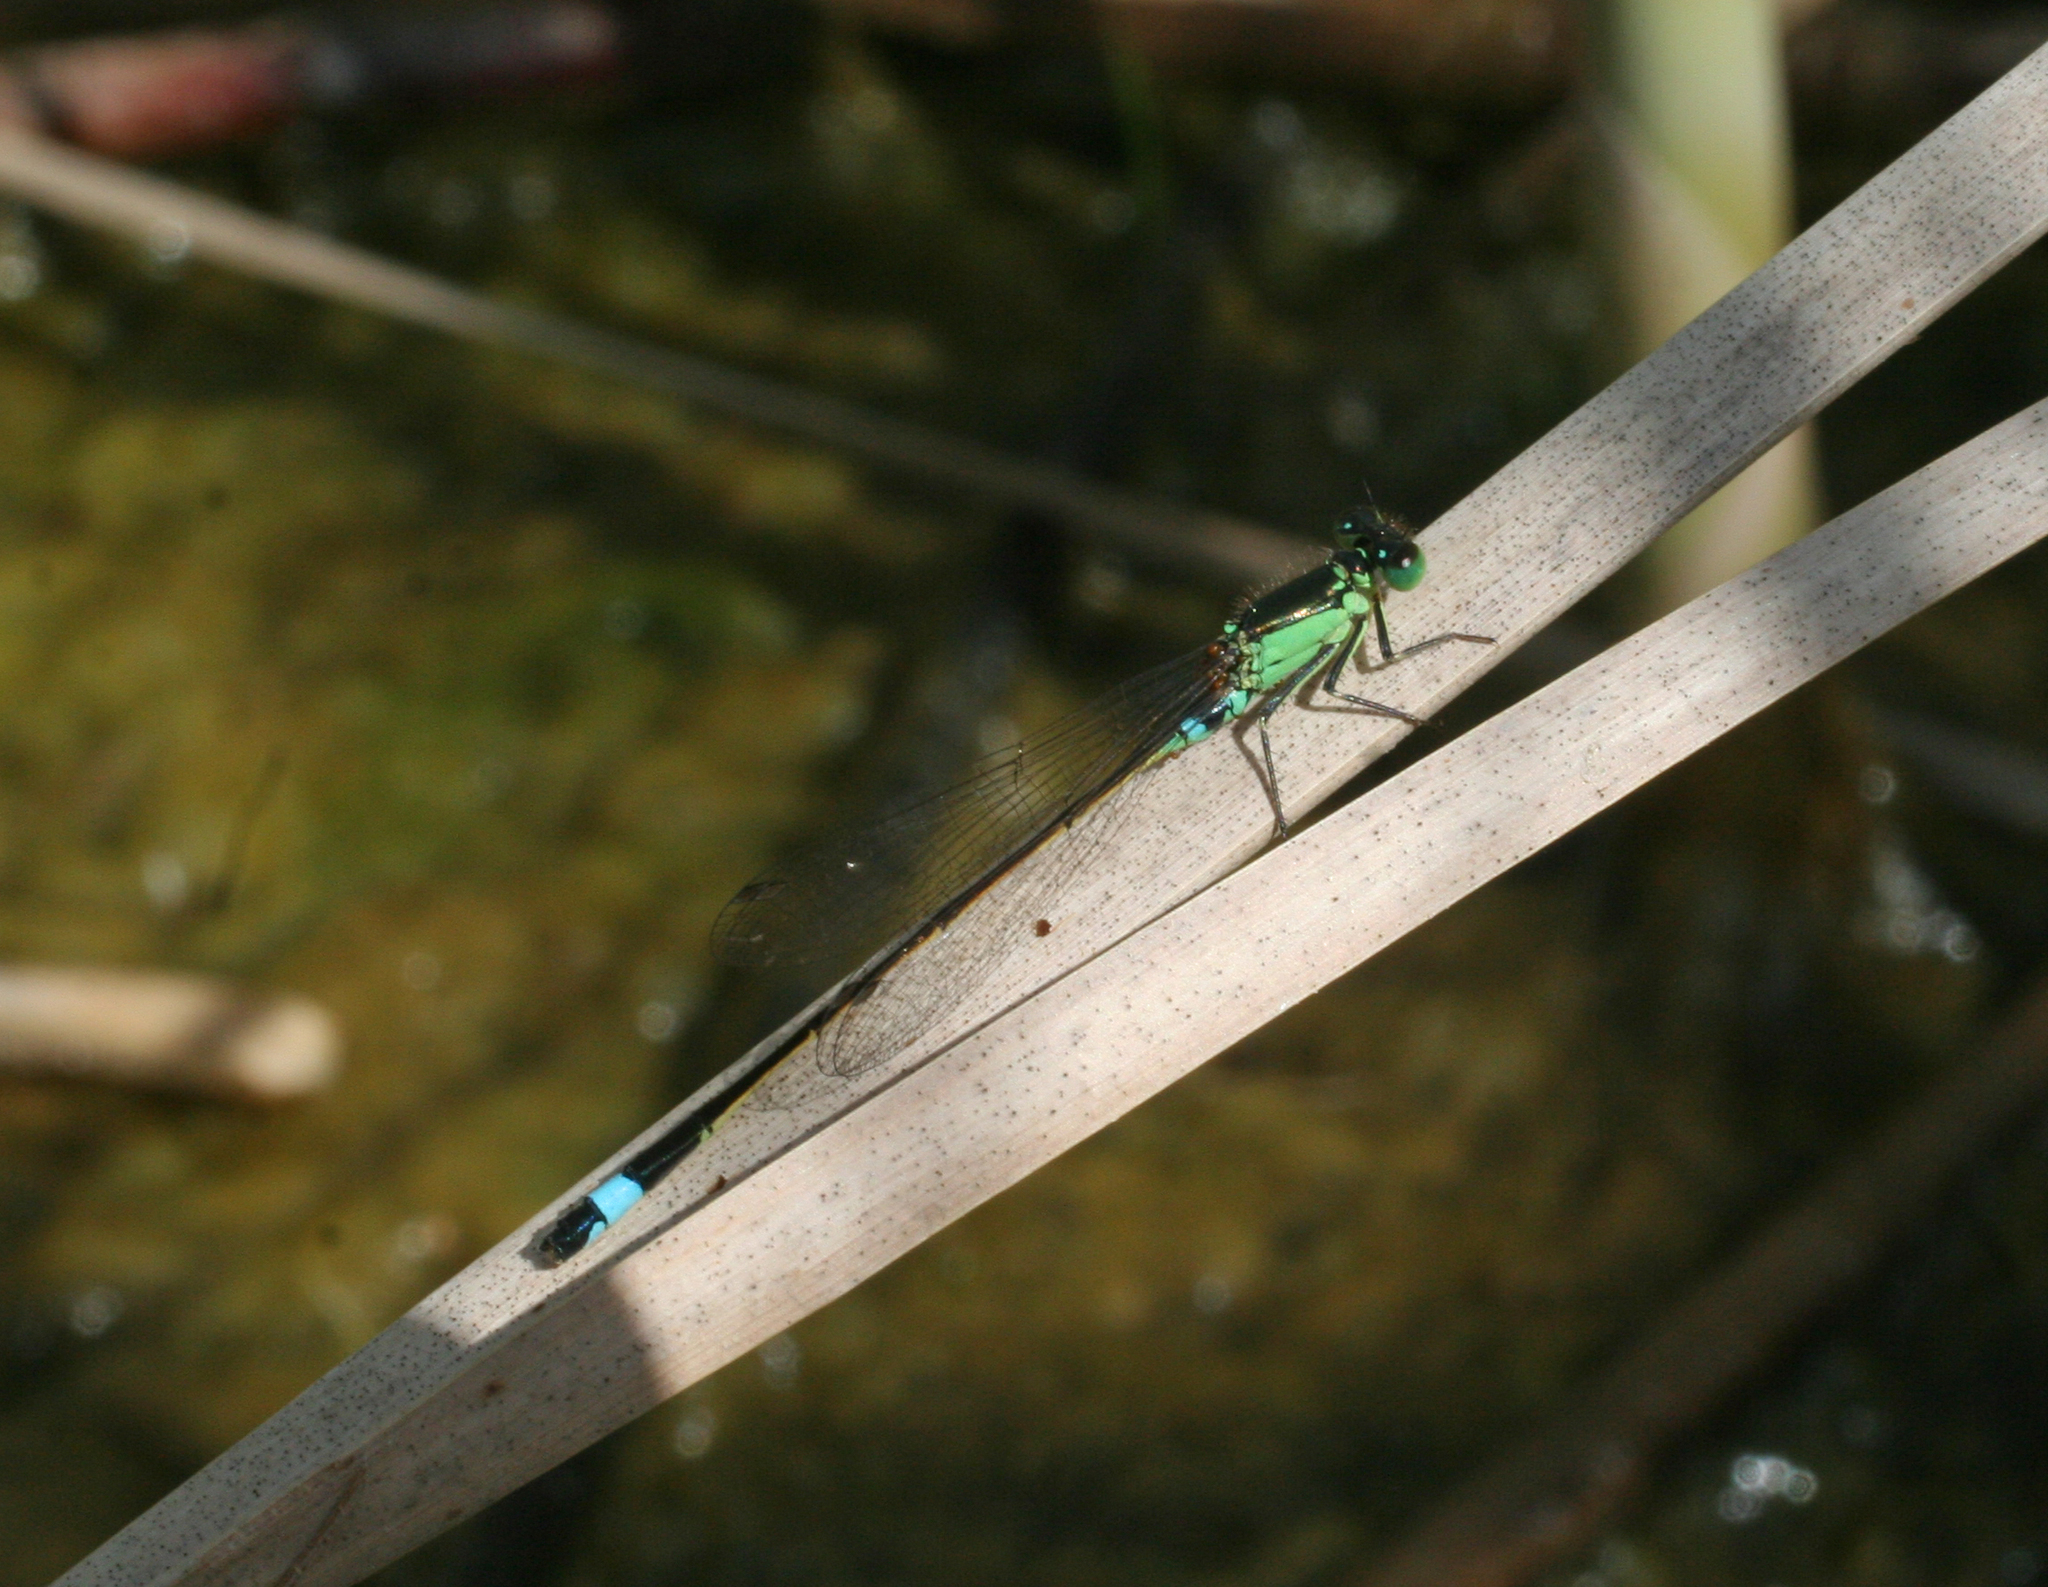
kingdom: Animalia
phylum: Arthropoda
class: Insecta
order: Odonata
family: Coenagrionidae
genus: Ischnura
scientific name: Ischnura aralensis
